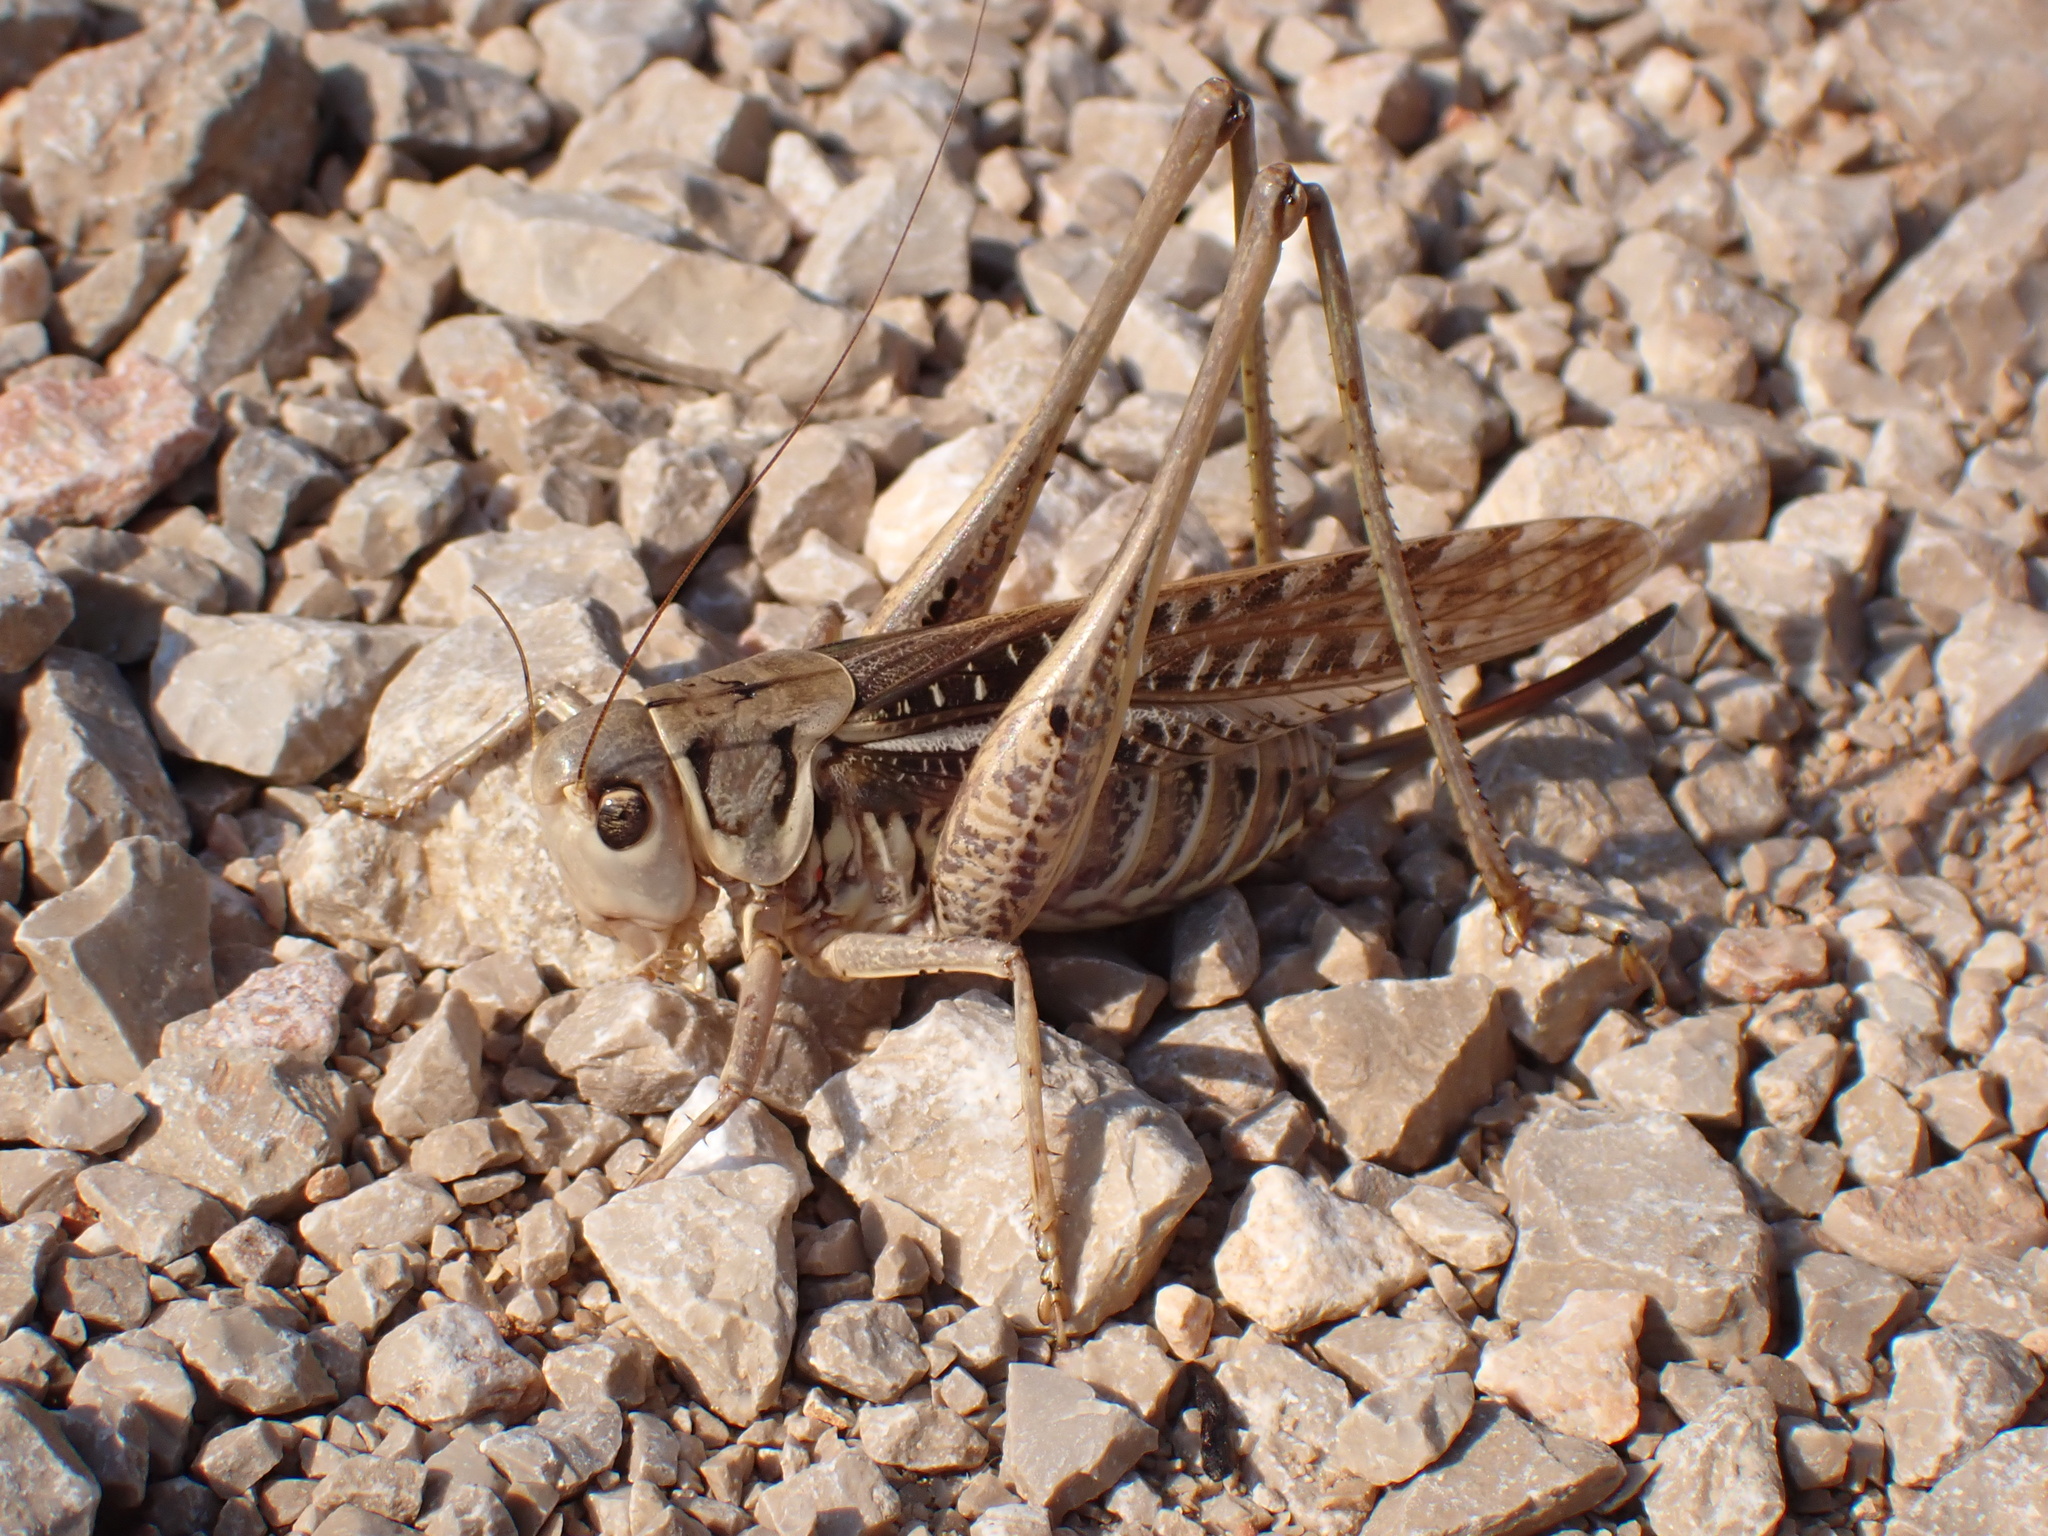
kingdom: Animalia
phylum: Arthropoda
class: Insecta
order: Orthoptera
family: Tettigoniidae
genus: Decticus
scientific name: Decticus albifrons
